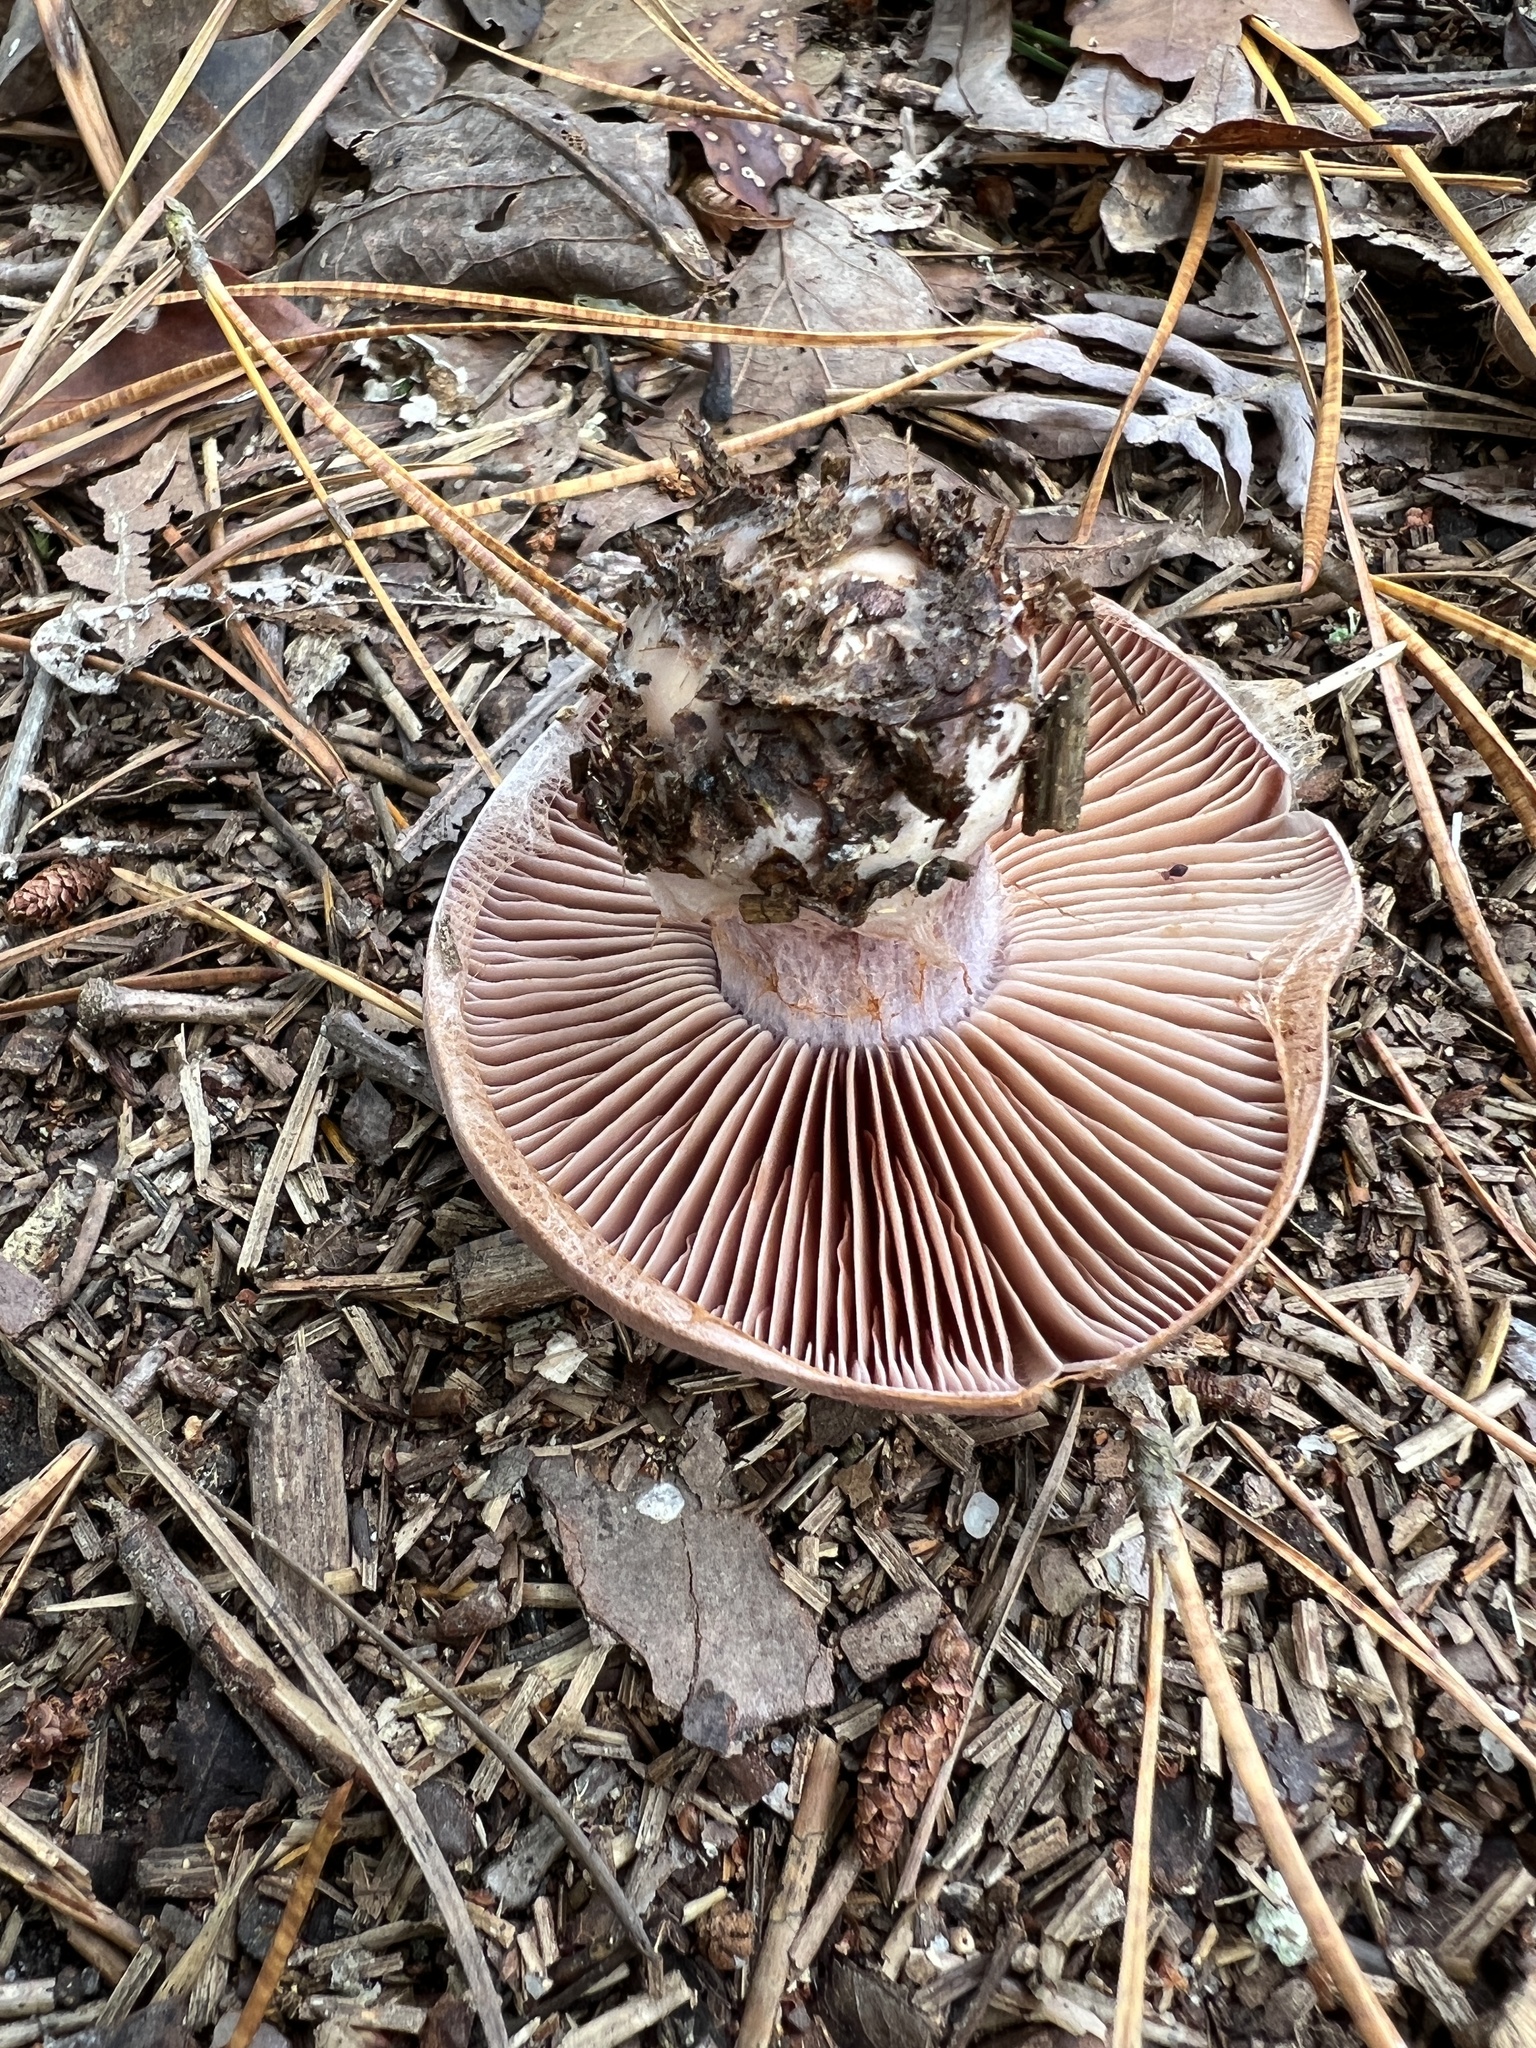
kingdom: Fungi
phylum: Basidiomycota
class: Agaricomycetes
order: Agaricales
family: Cortinariaceae
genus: Cortinarius
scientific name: Cortinarius compressus
